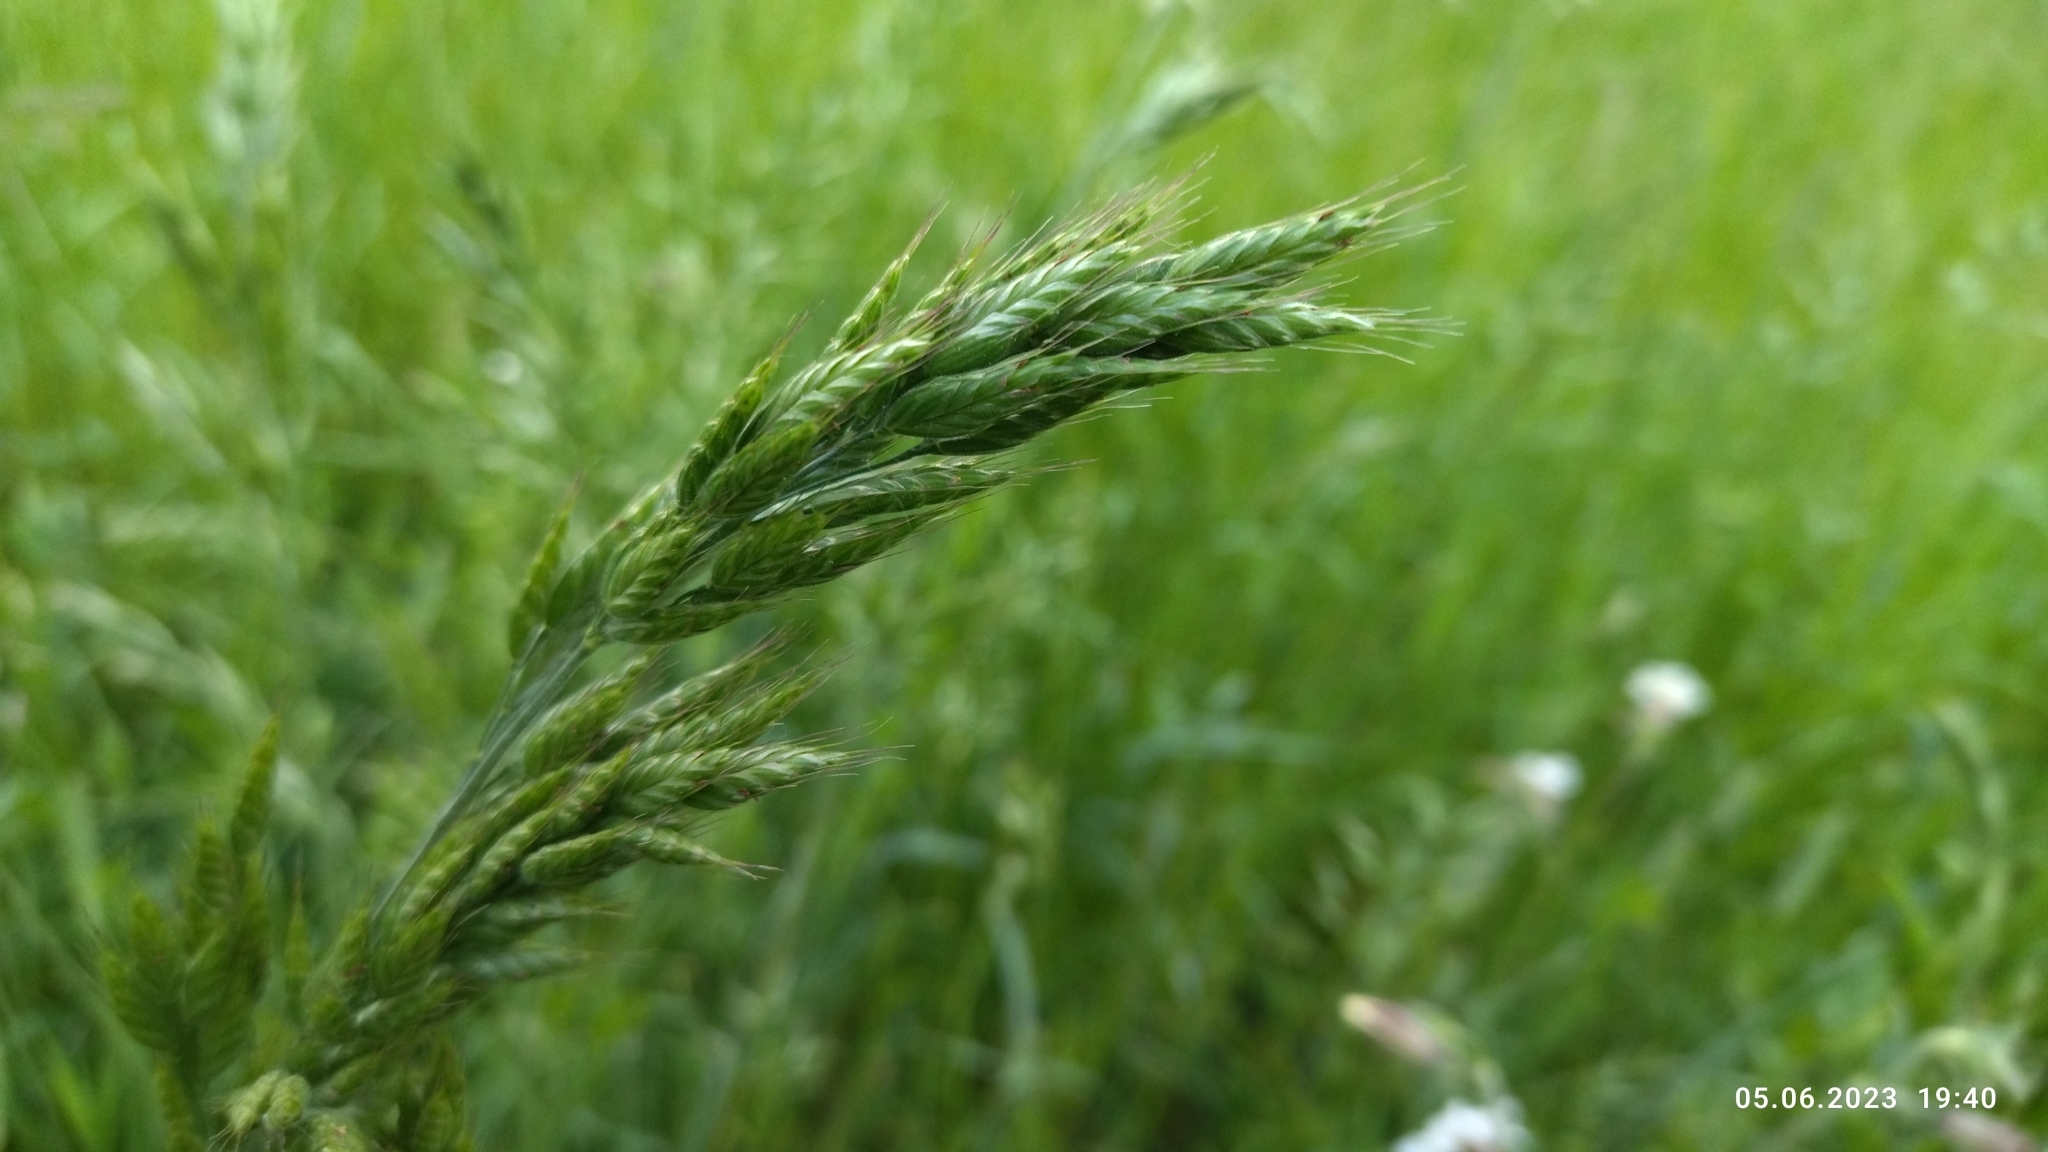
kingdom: Plantae
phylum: Tracheophyta
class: Liliopsida
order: Poales
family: Poaceae
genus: Bromus
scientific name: Bromus hordeaceus
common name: Soft brome
